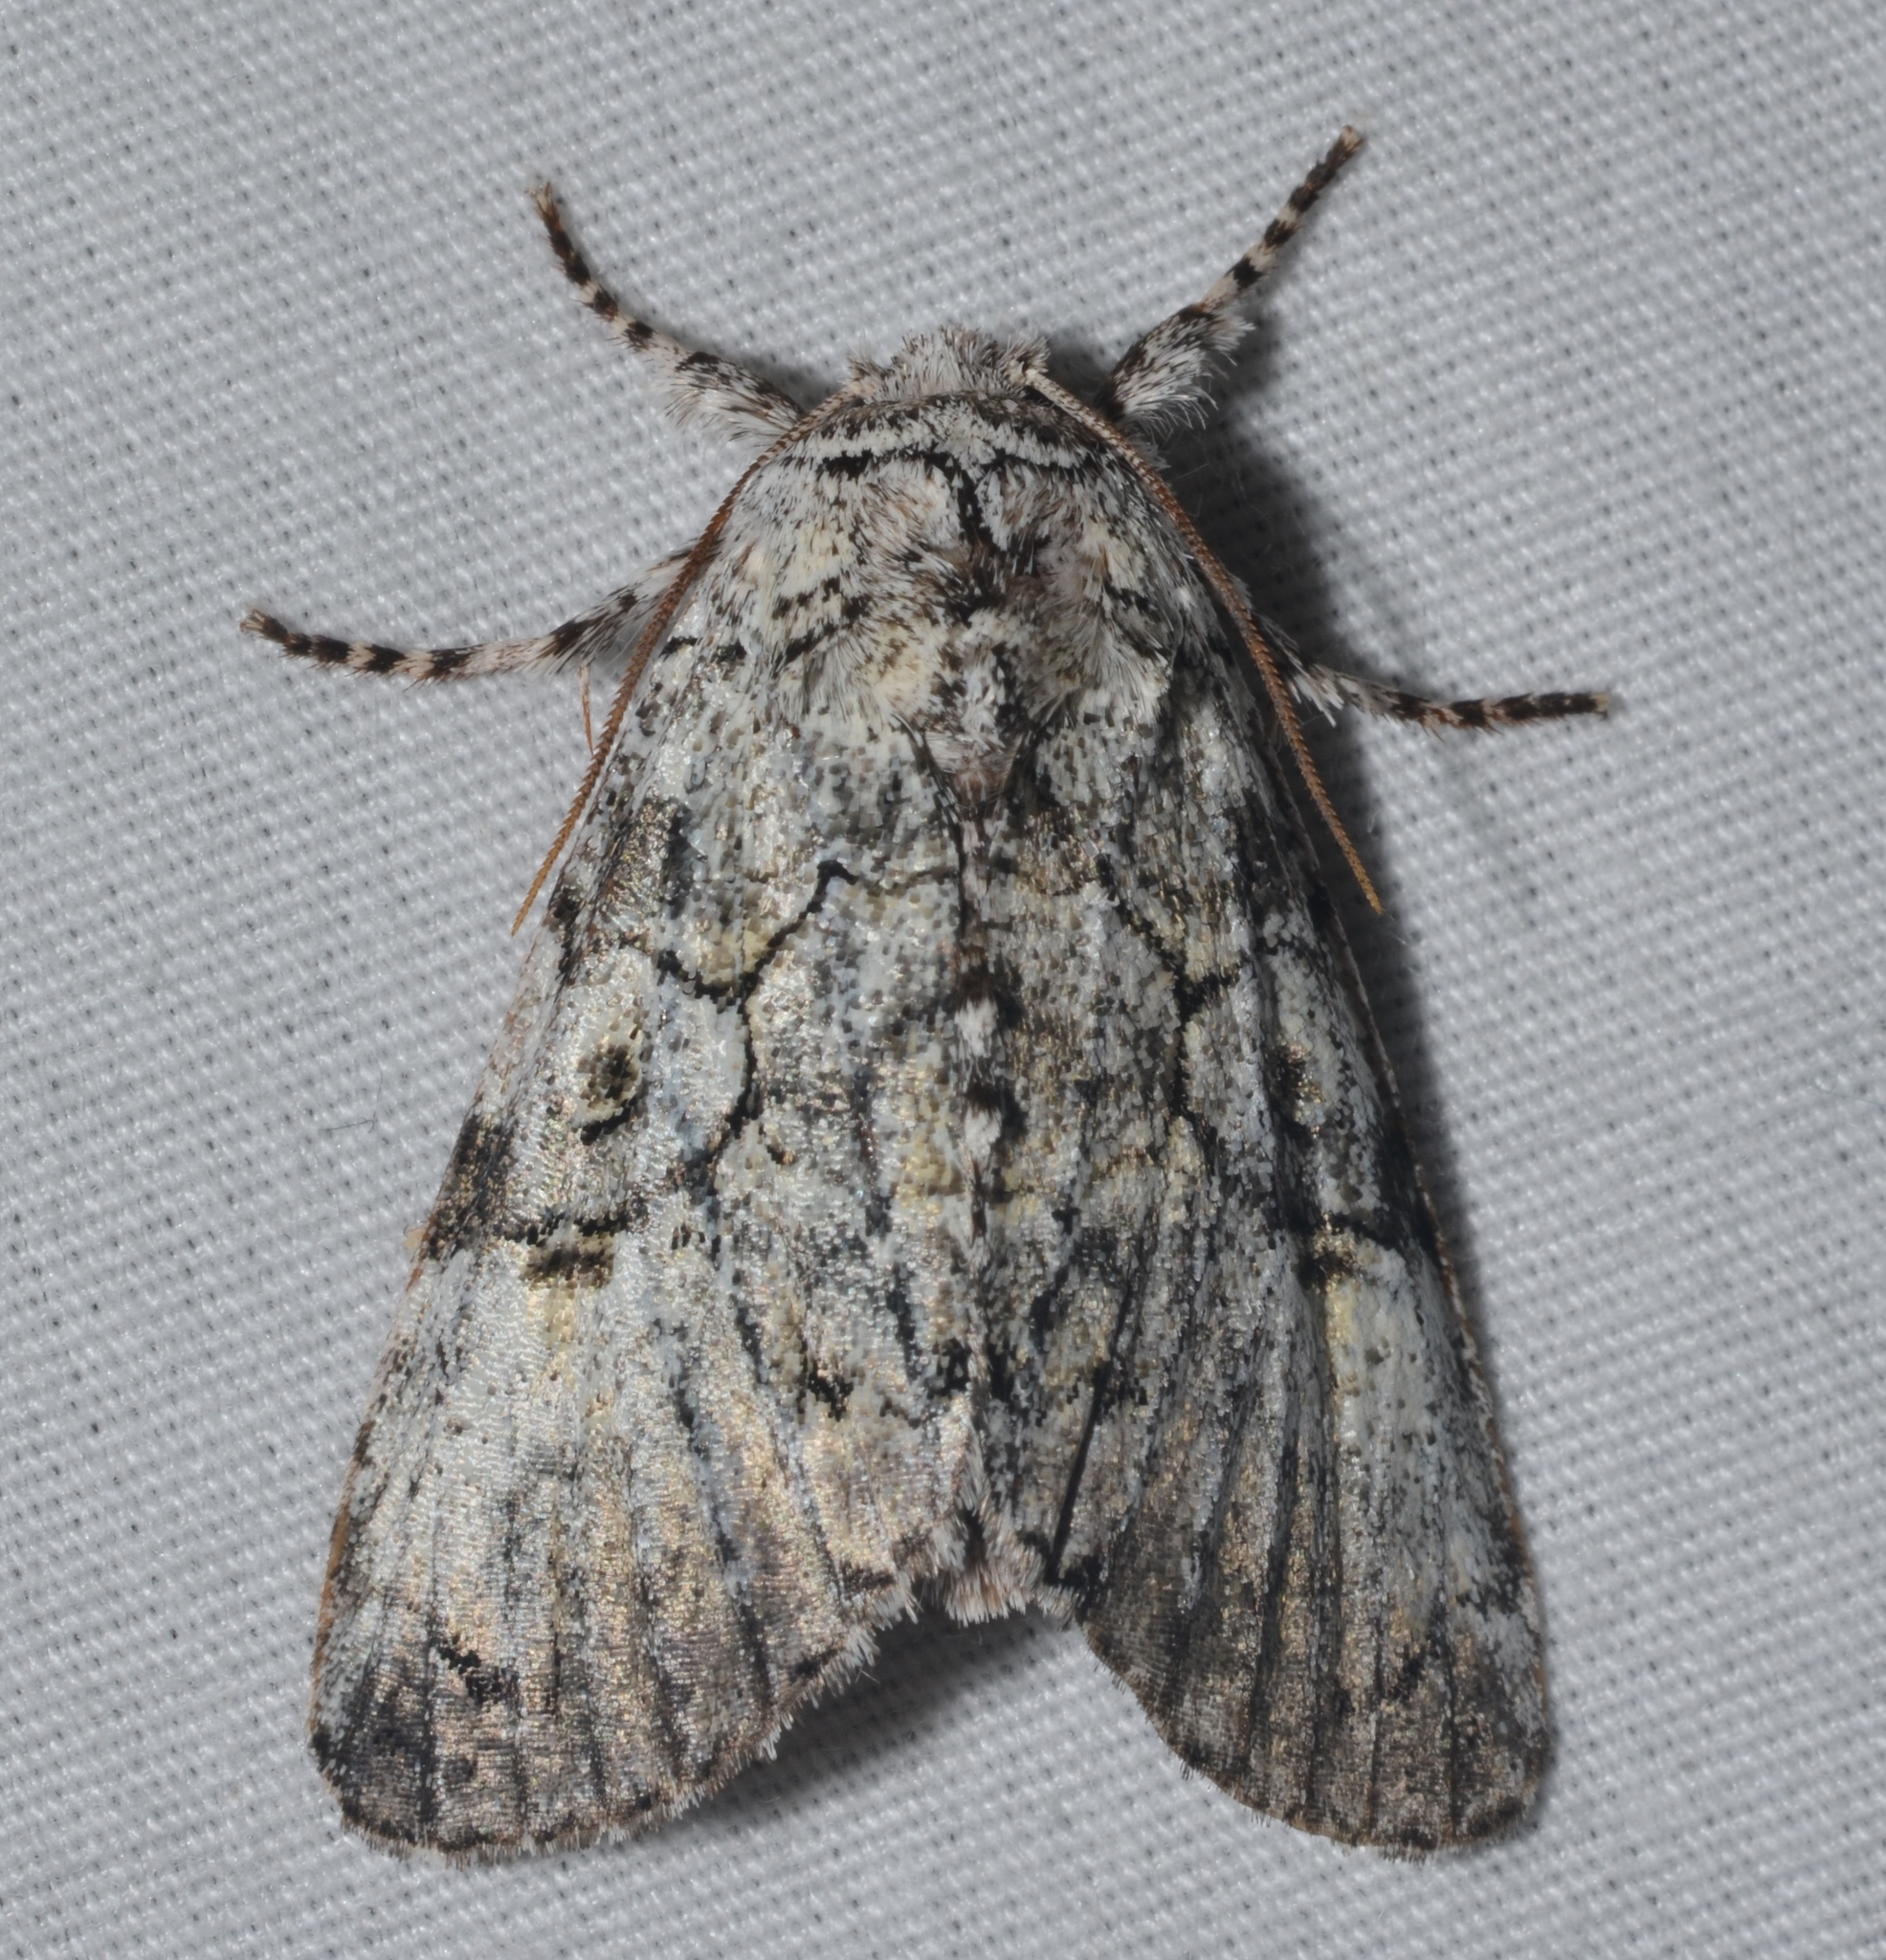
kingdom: Animalia
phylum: Arthropoda
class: Insecta
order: Lepidoptera
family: Noctuidae
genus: Charadra
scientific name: Charadra deridens
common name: Marbled tuffet
